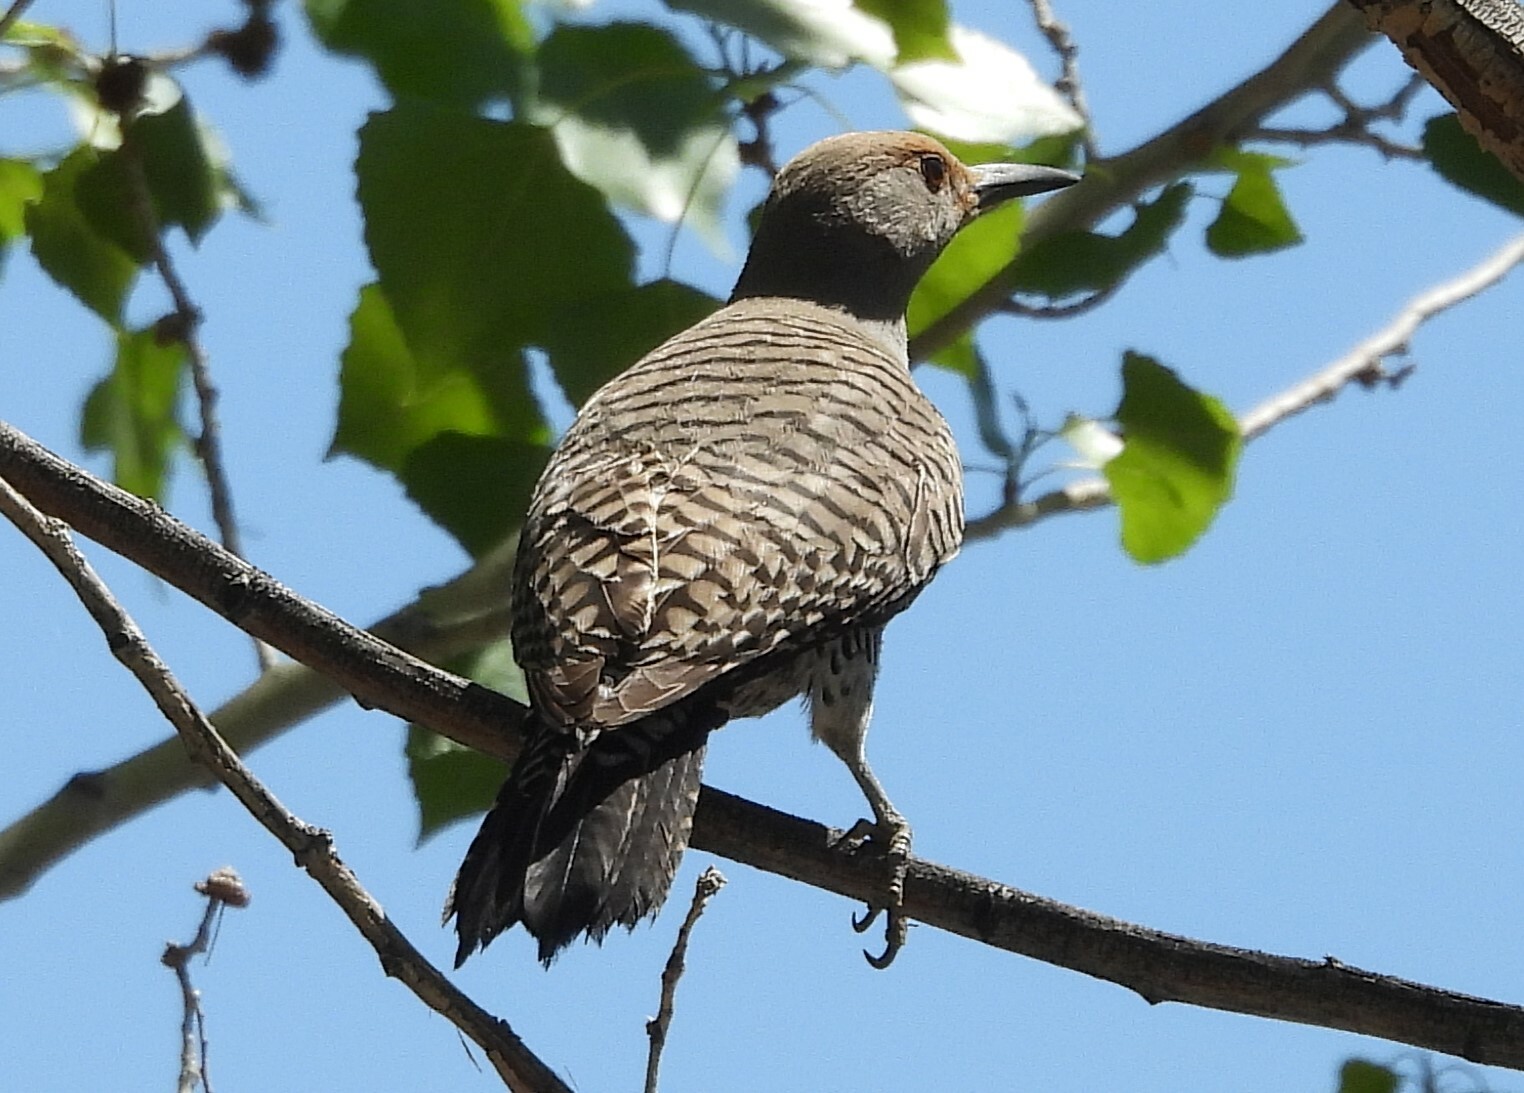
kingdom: Animalia
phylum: Chordata
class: Aves
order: Piciformes
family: Picidae
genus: Colaptes
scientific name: Colaptes auratus
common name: Northern flicker
